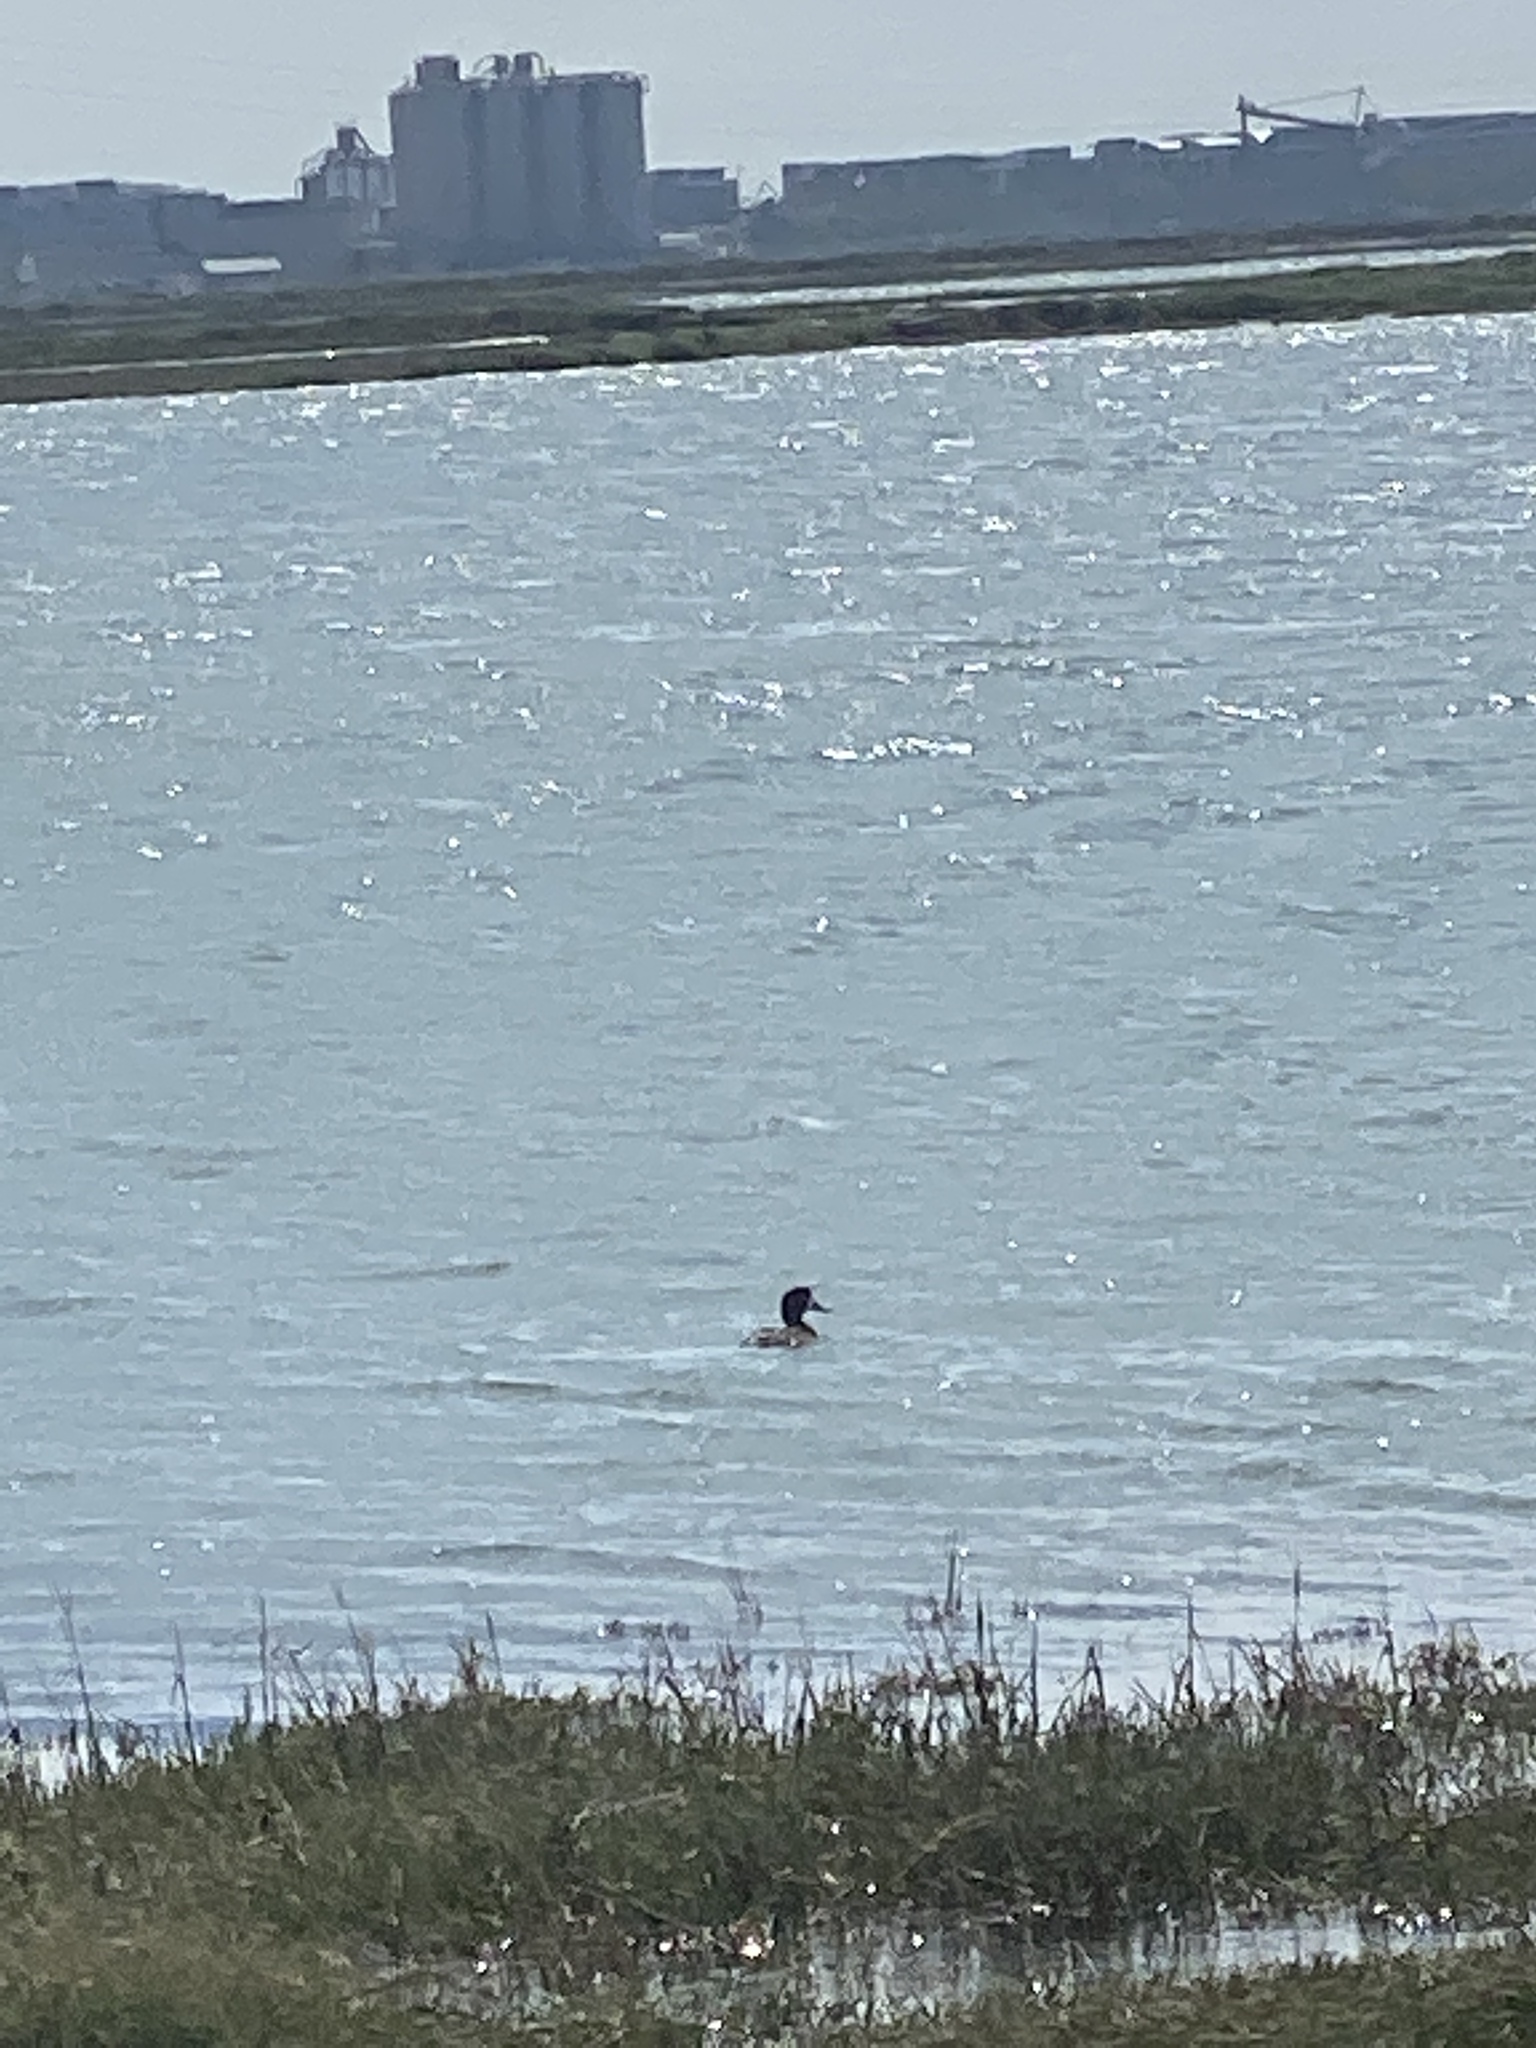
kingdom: Animalia
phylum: Chordata
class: Aves
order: Anseriformes
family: Anatidae
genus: Aythya
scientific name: Aythya
